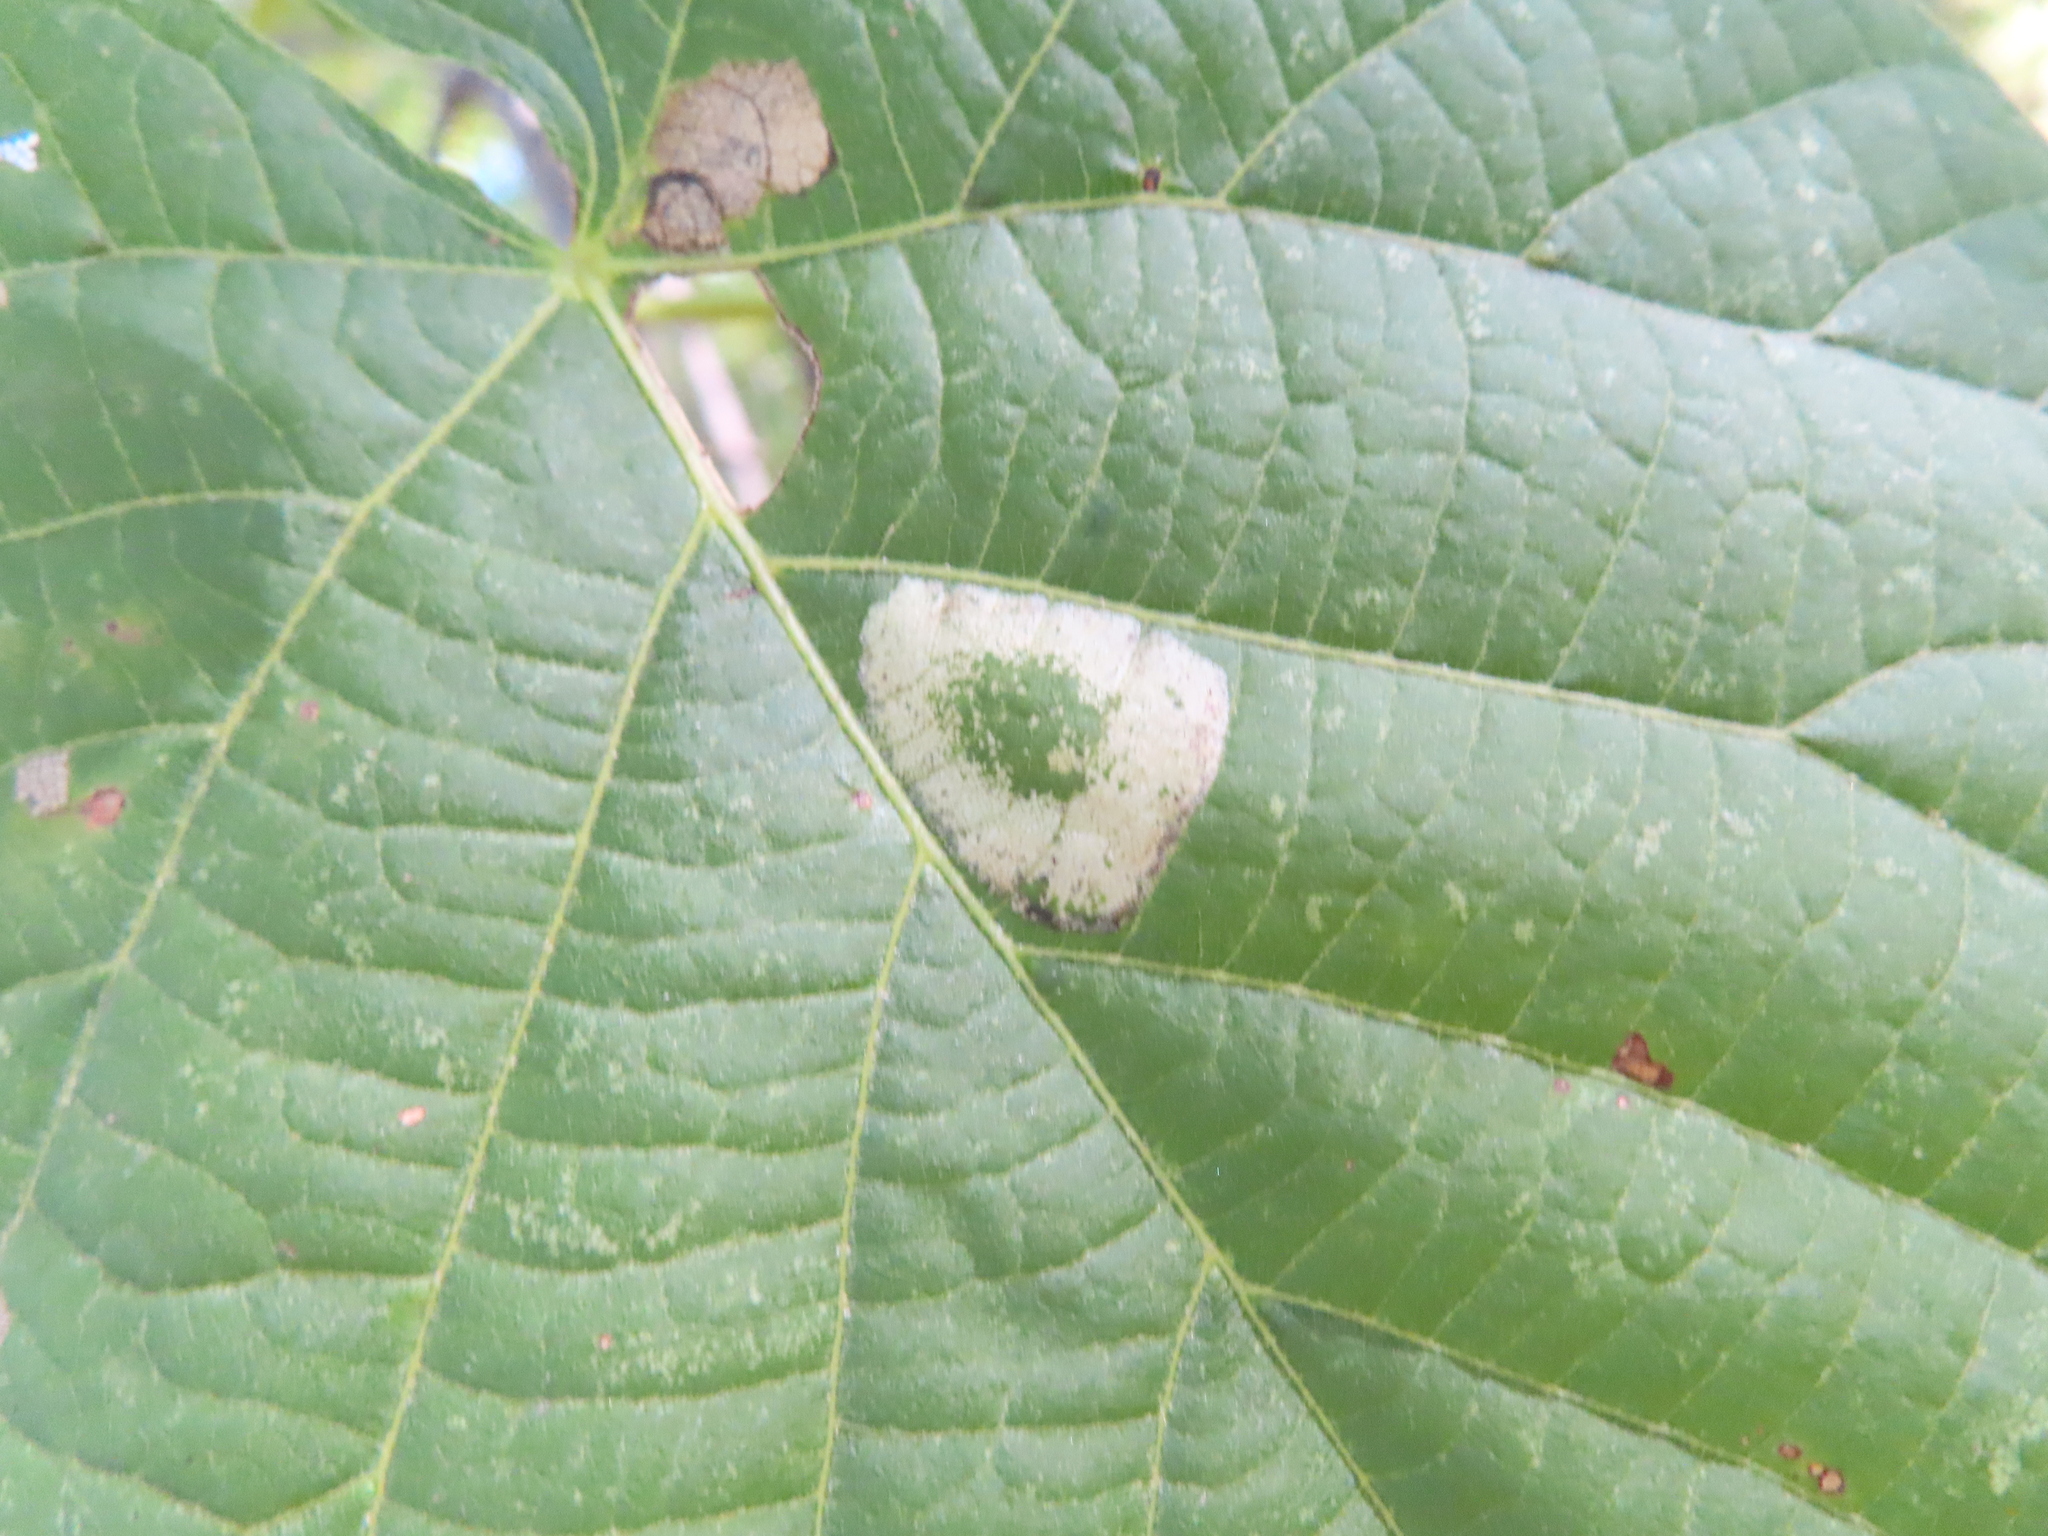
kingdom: Animalia
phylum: Arthropoda
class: Insecta
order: Lepidoptera
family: Gracillariidae
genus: Phyllonorycter
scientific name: Phyllonorycter lucetiella
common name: Basswood miner moth
